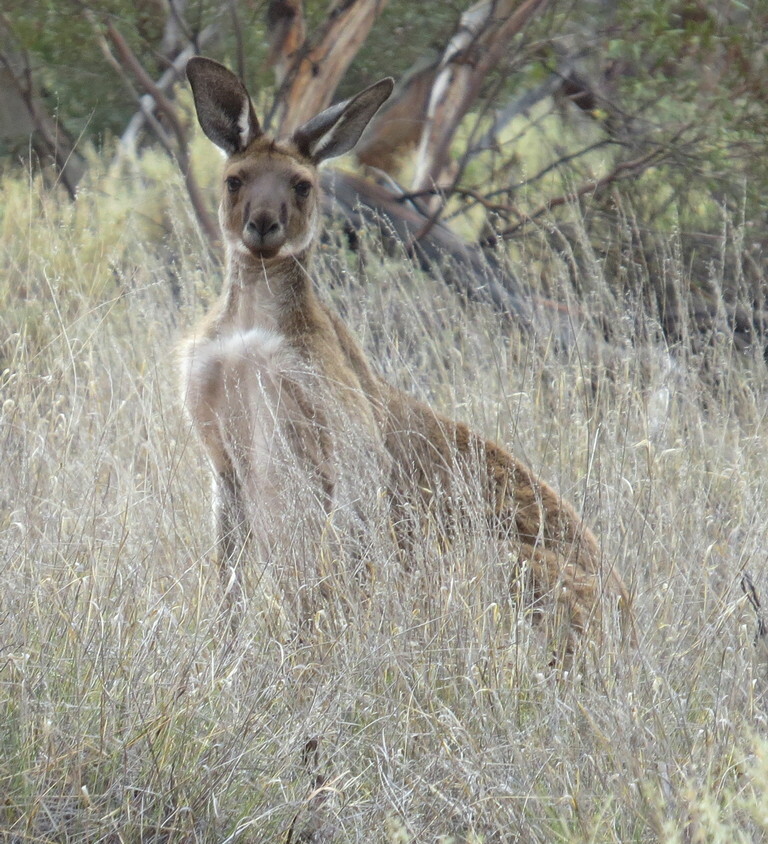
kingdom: Animalia
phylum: Chordata
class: Mammalia
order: Diprotodontia
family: Macropodidae
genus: Macropus
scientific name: Macropus fuliginosus
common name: Western grey kangaroo
